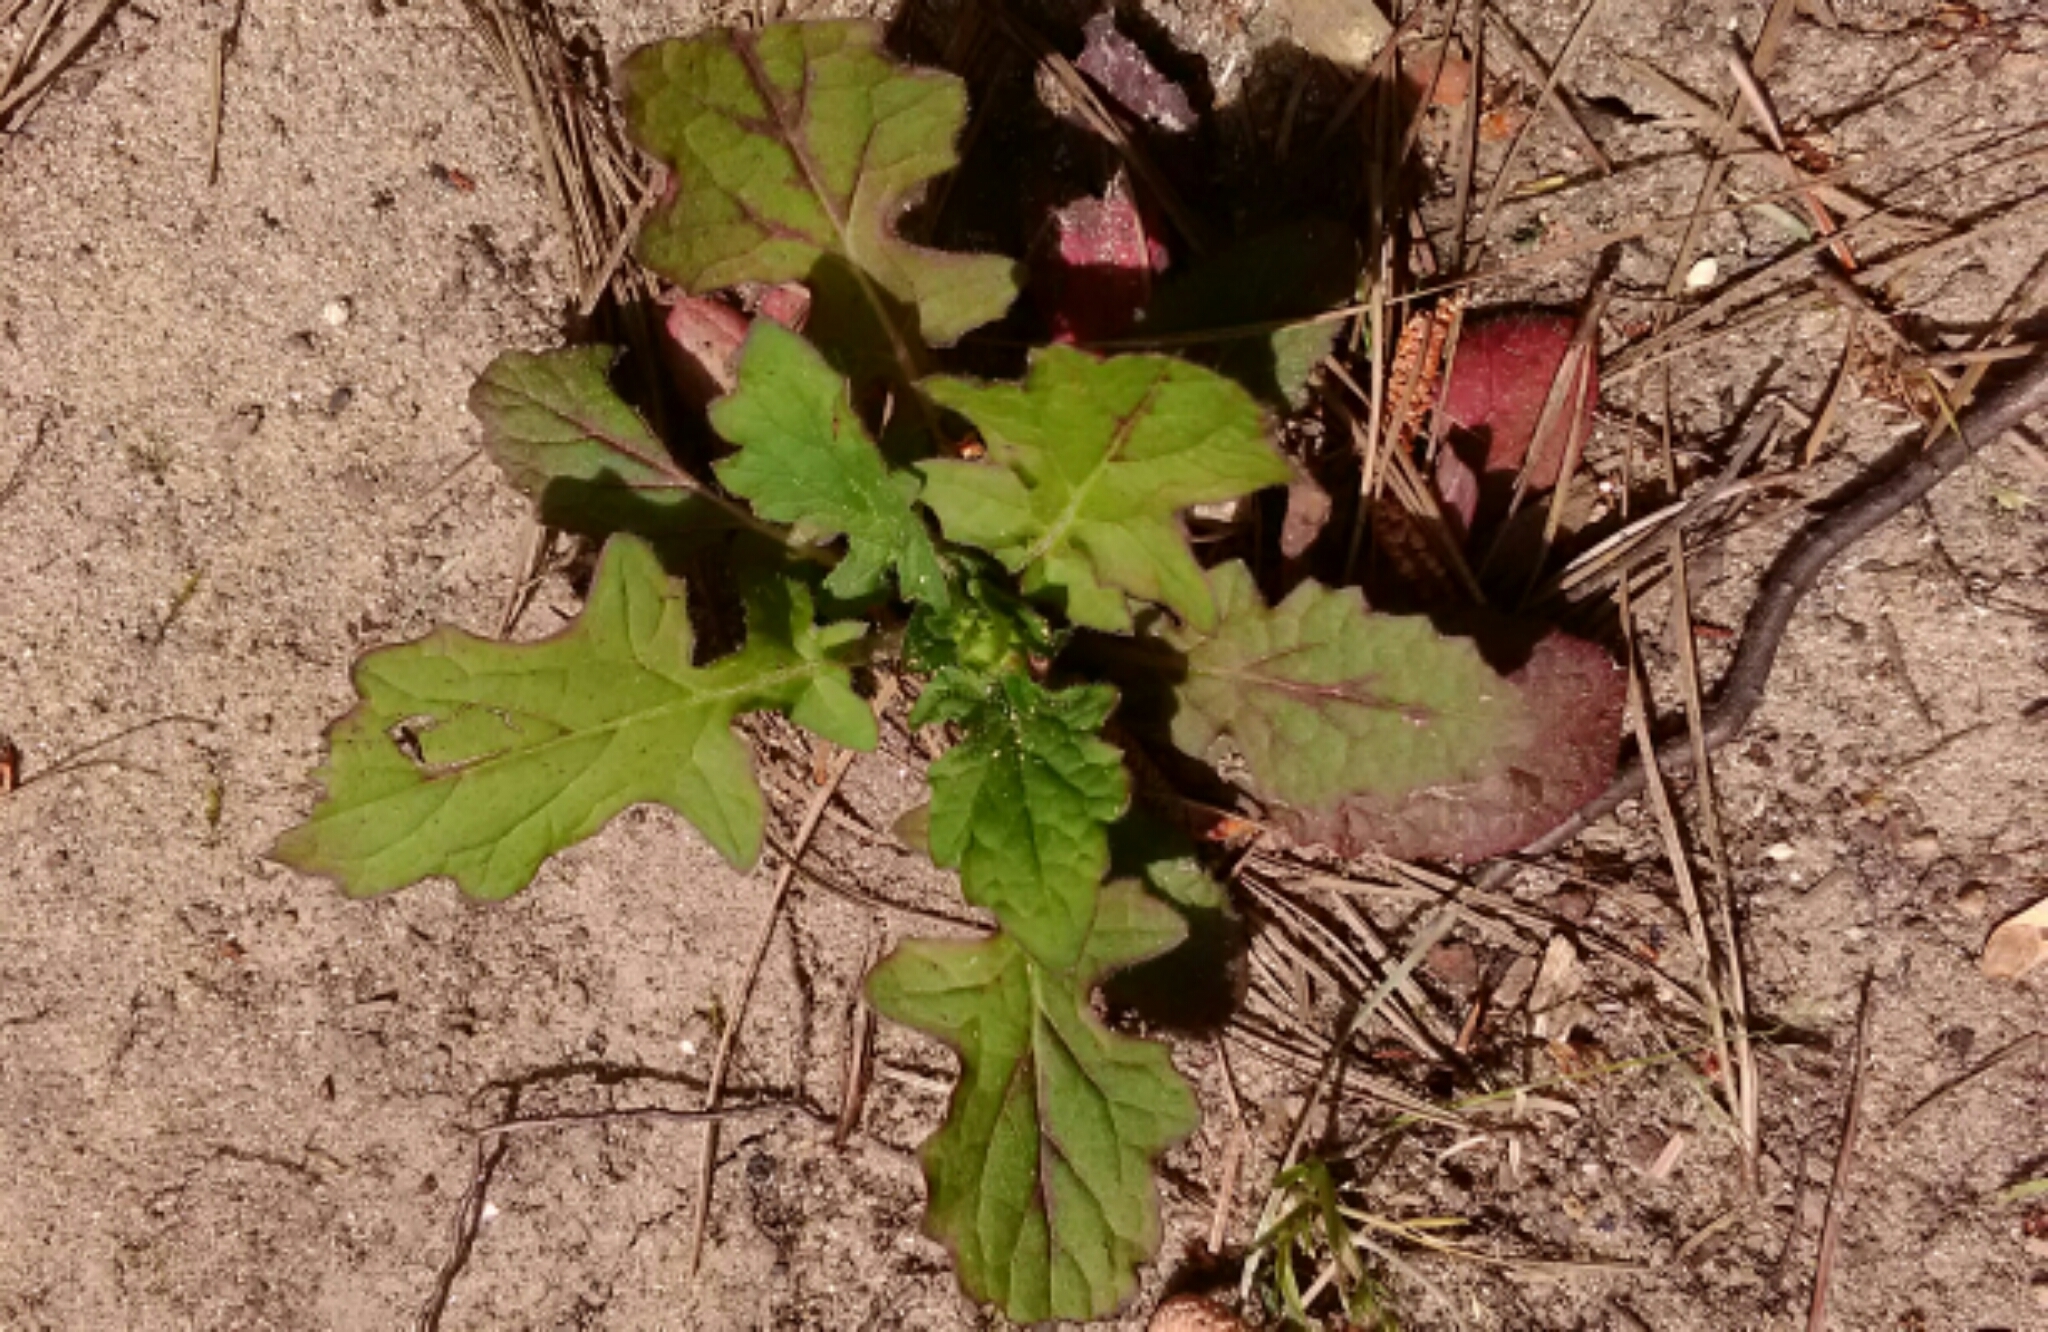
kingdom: Plantae
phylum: Tracheophyta
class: Magnoliopsida
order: Lamiales
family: Lamiaceae
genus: Salvia
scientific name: Salvia lyrata
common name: Cancerweed
